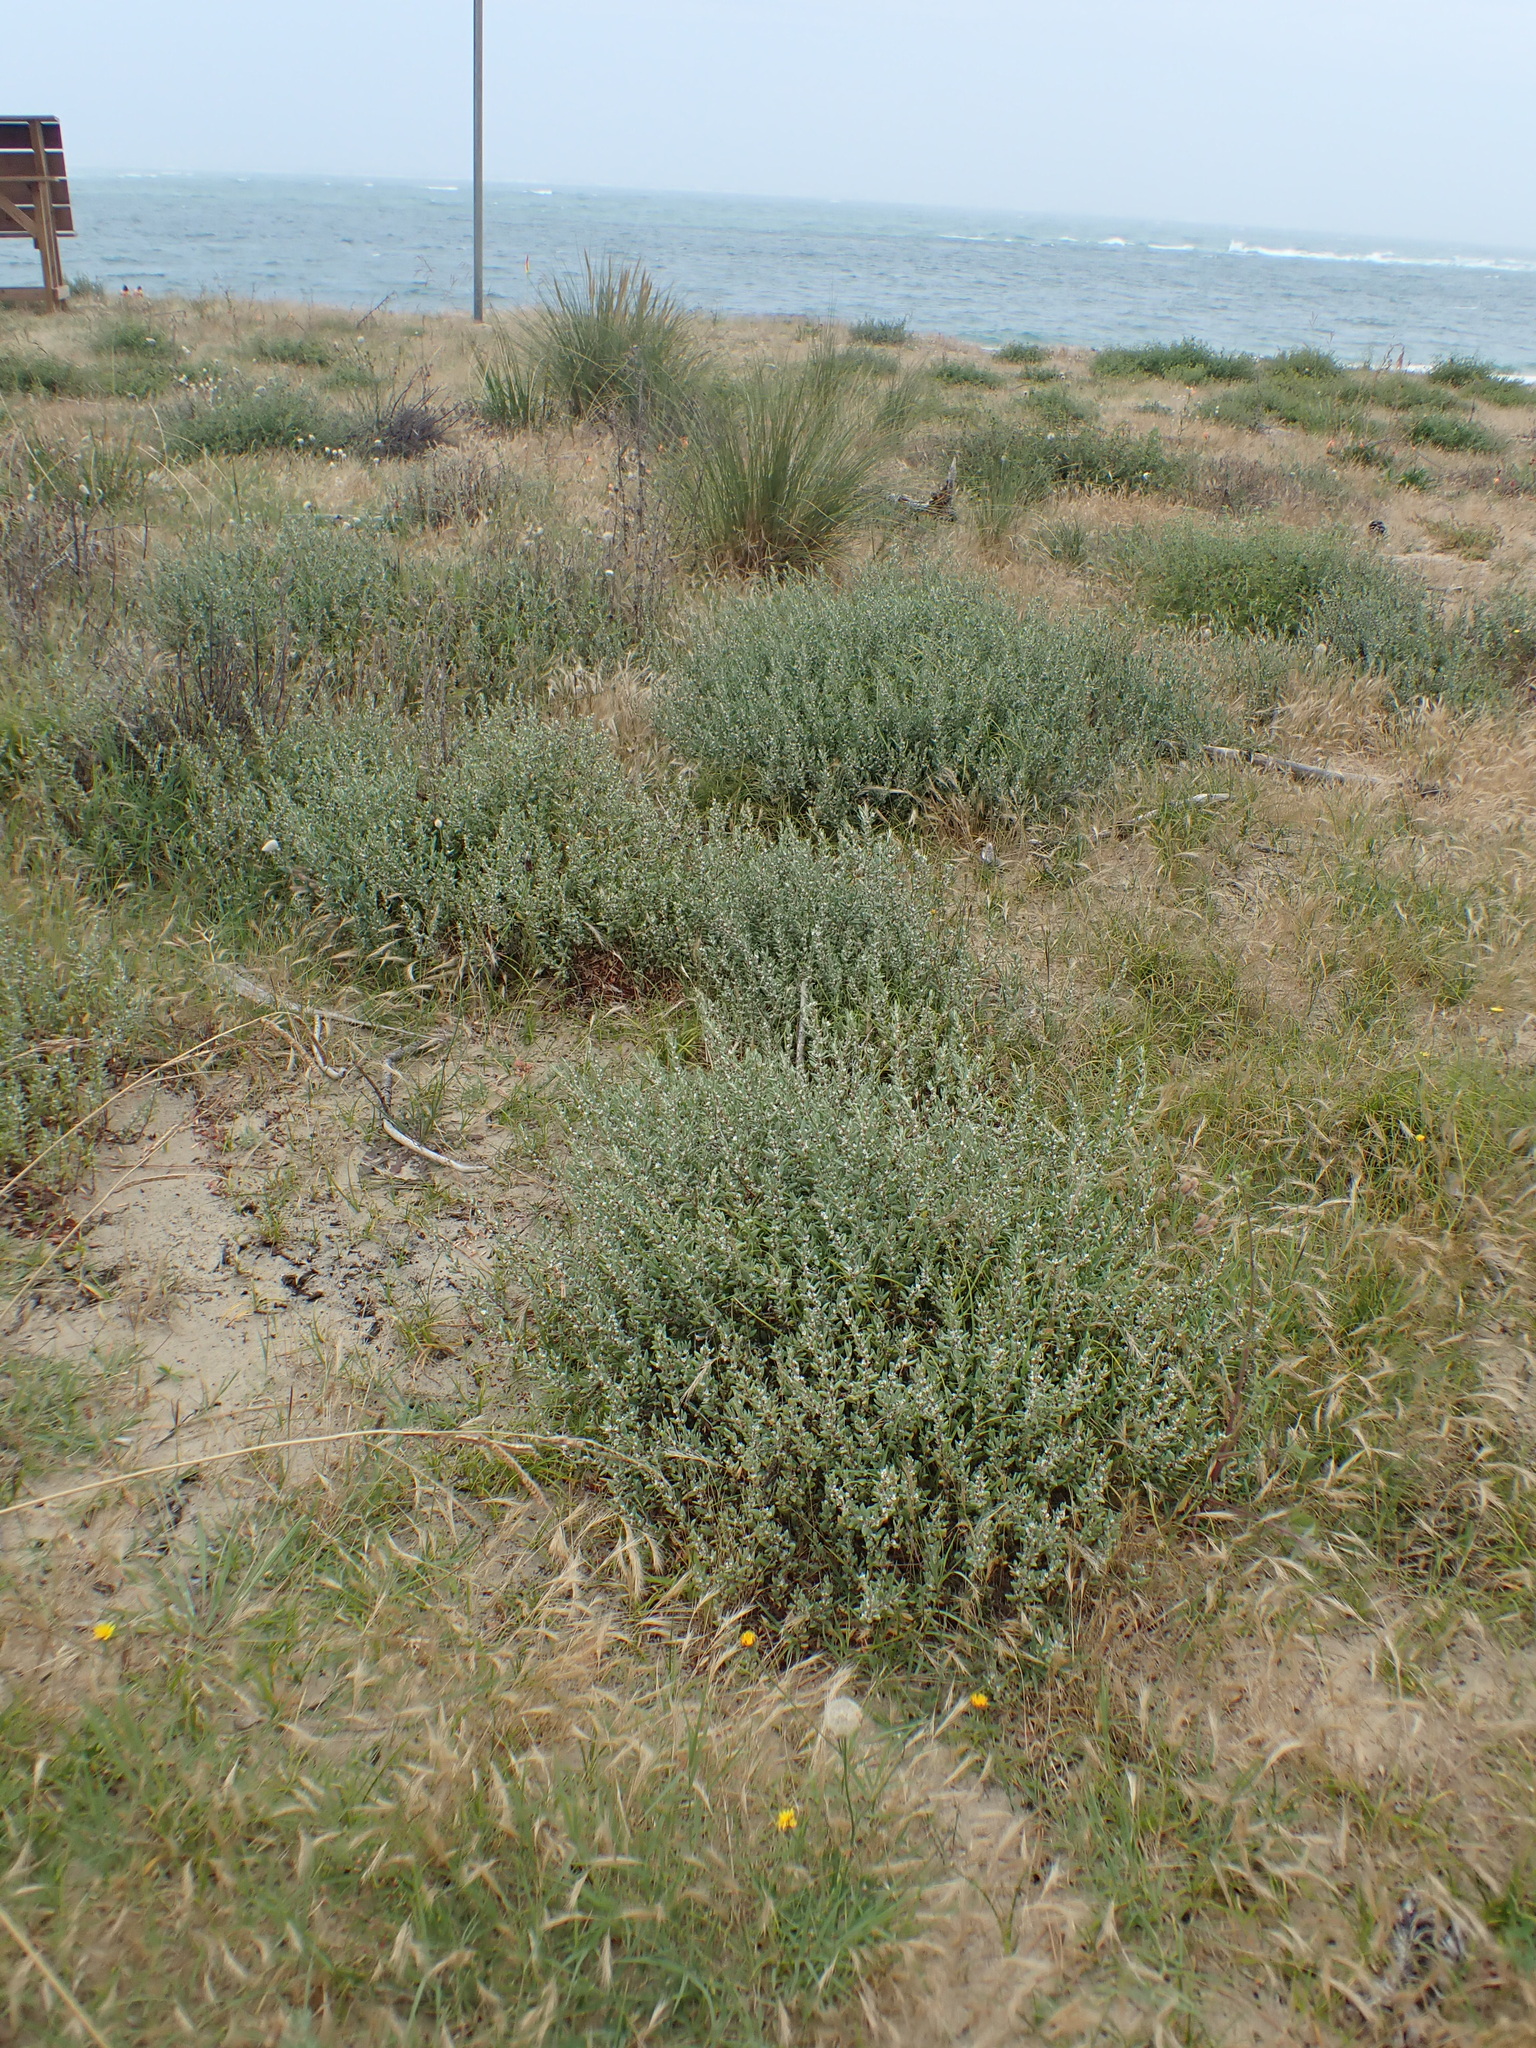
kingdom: Plantae
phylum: Tracheophyta
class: Magnoliopsida
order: Caryophyllales
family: Polygonaceae
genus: Polygonum
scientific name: Polygonum maritimum
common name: Sea knotgrass
